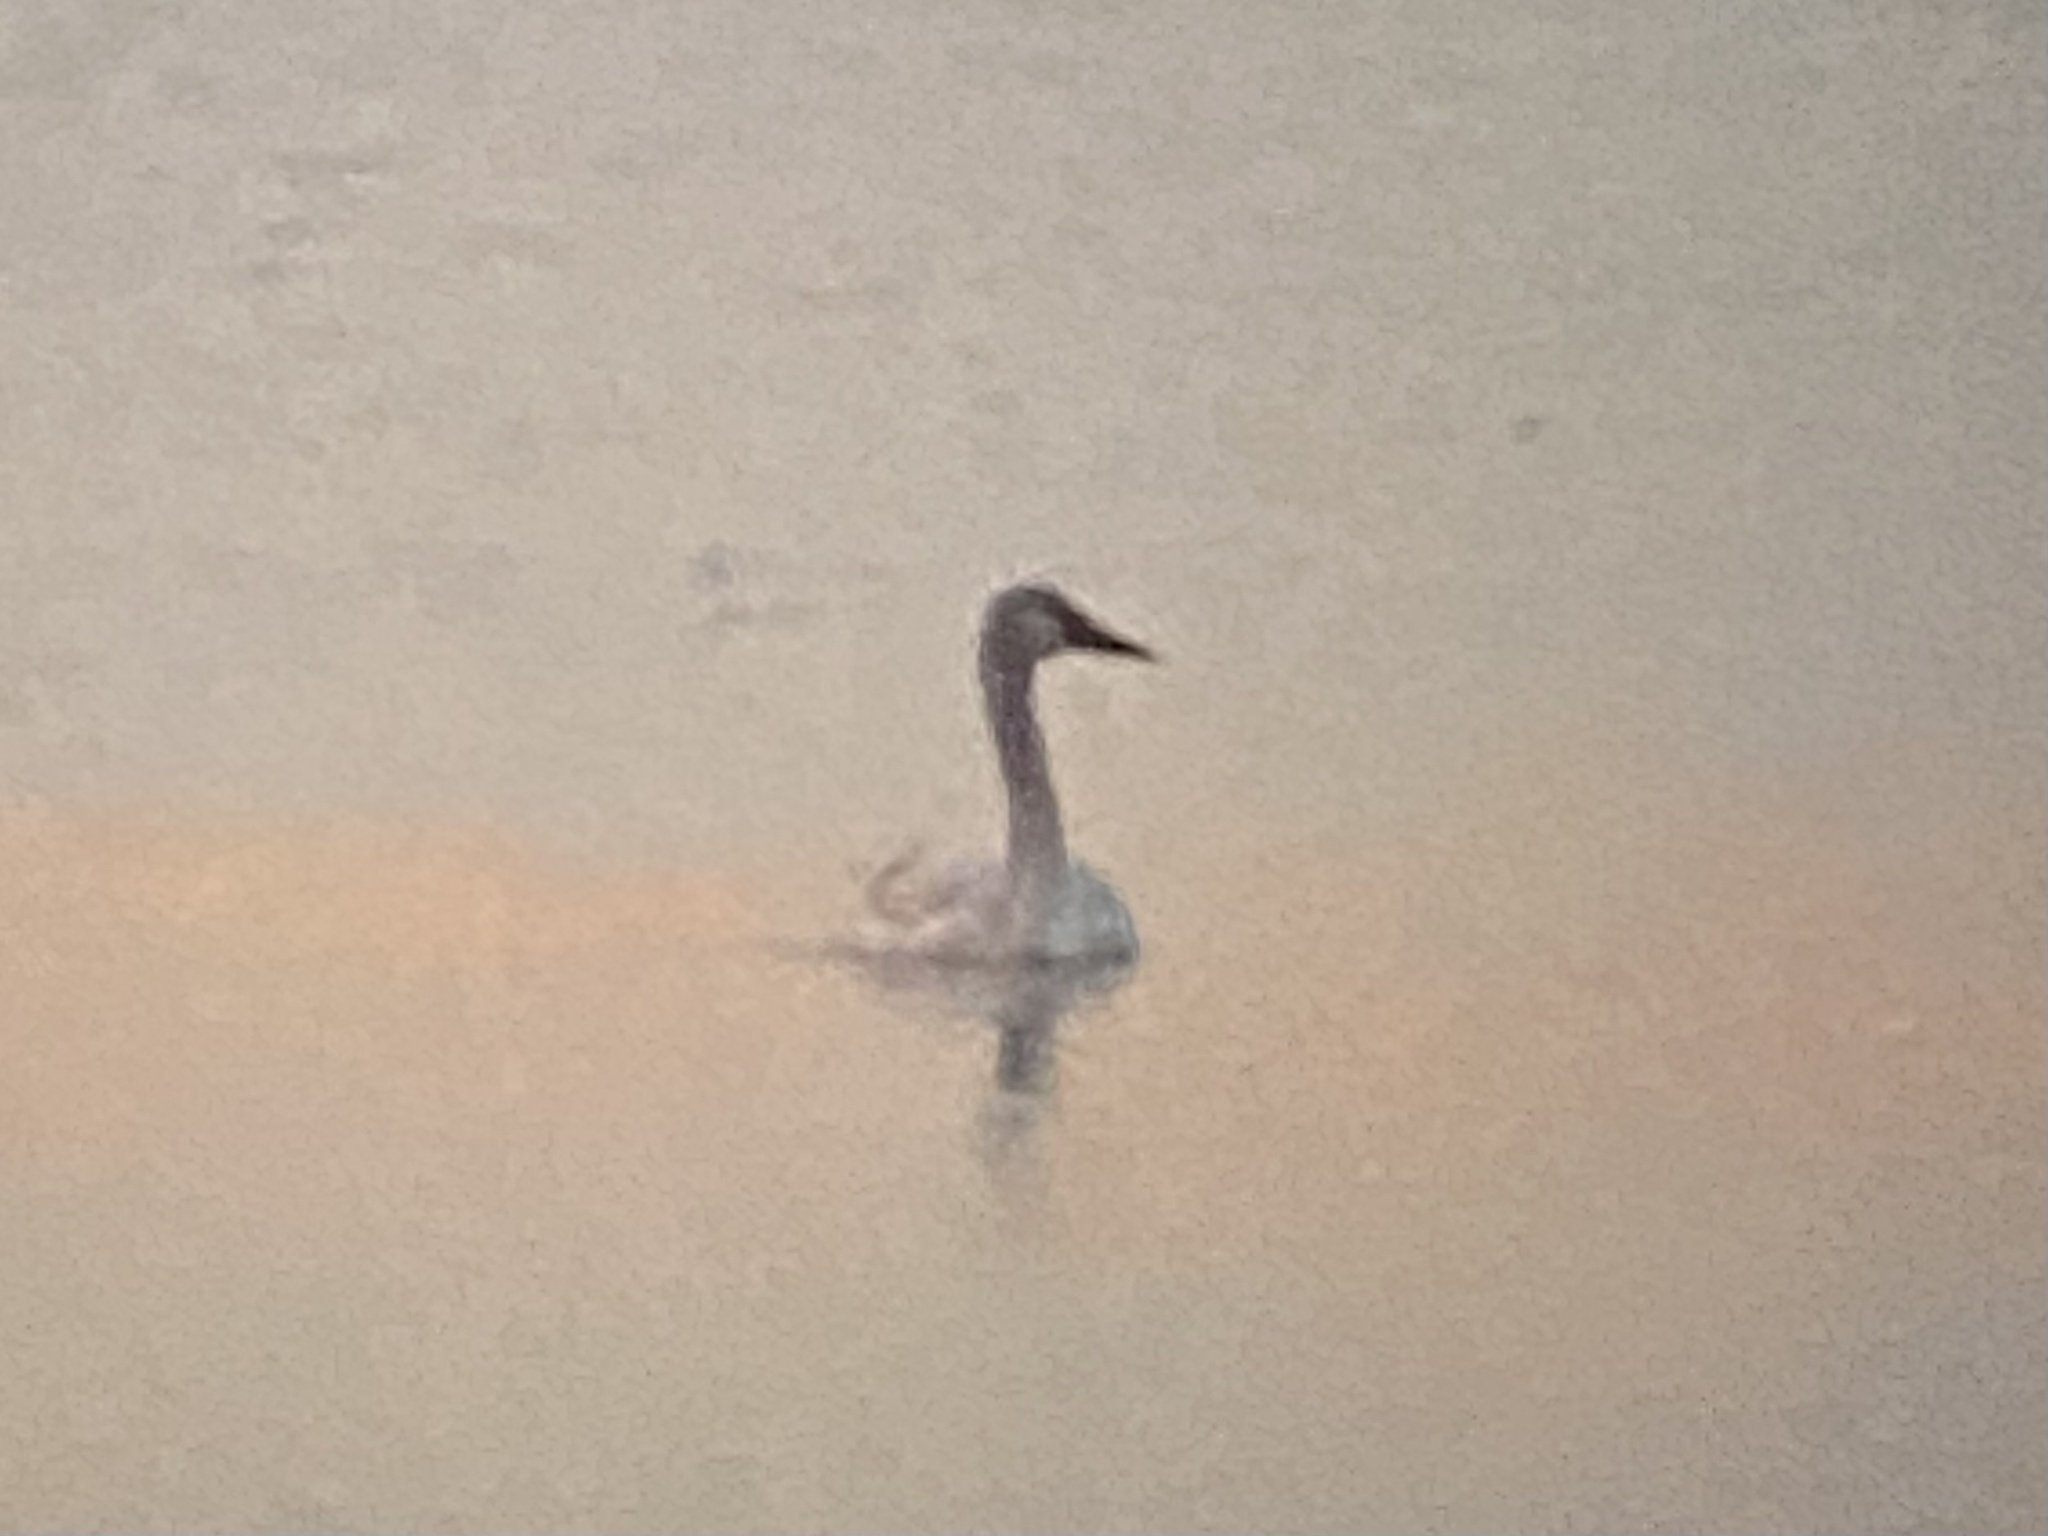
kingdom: Animalia
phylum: Chordata
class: Aves
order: Anseriformes
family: Anatidae
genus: Cygnus
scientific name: Cygnus buccinator
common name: Trumpeter swan
